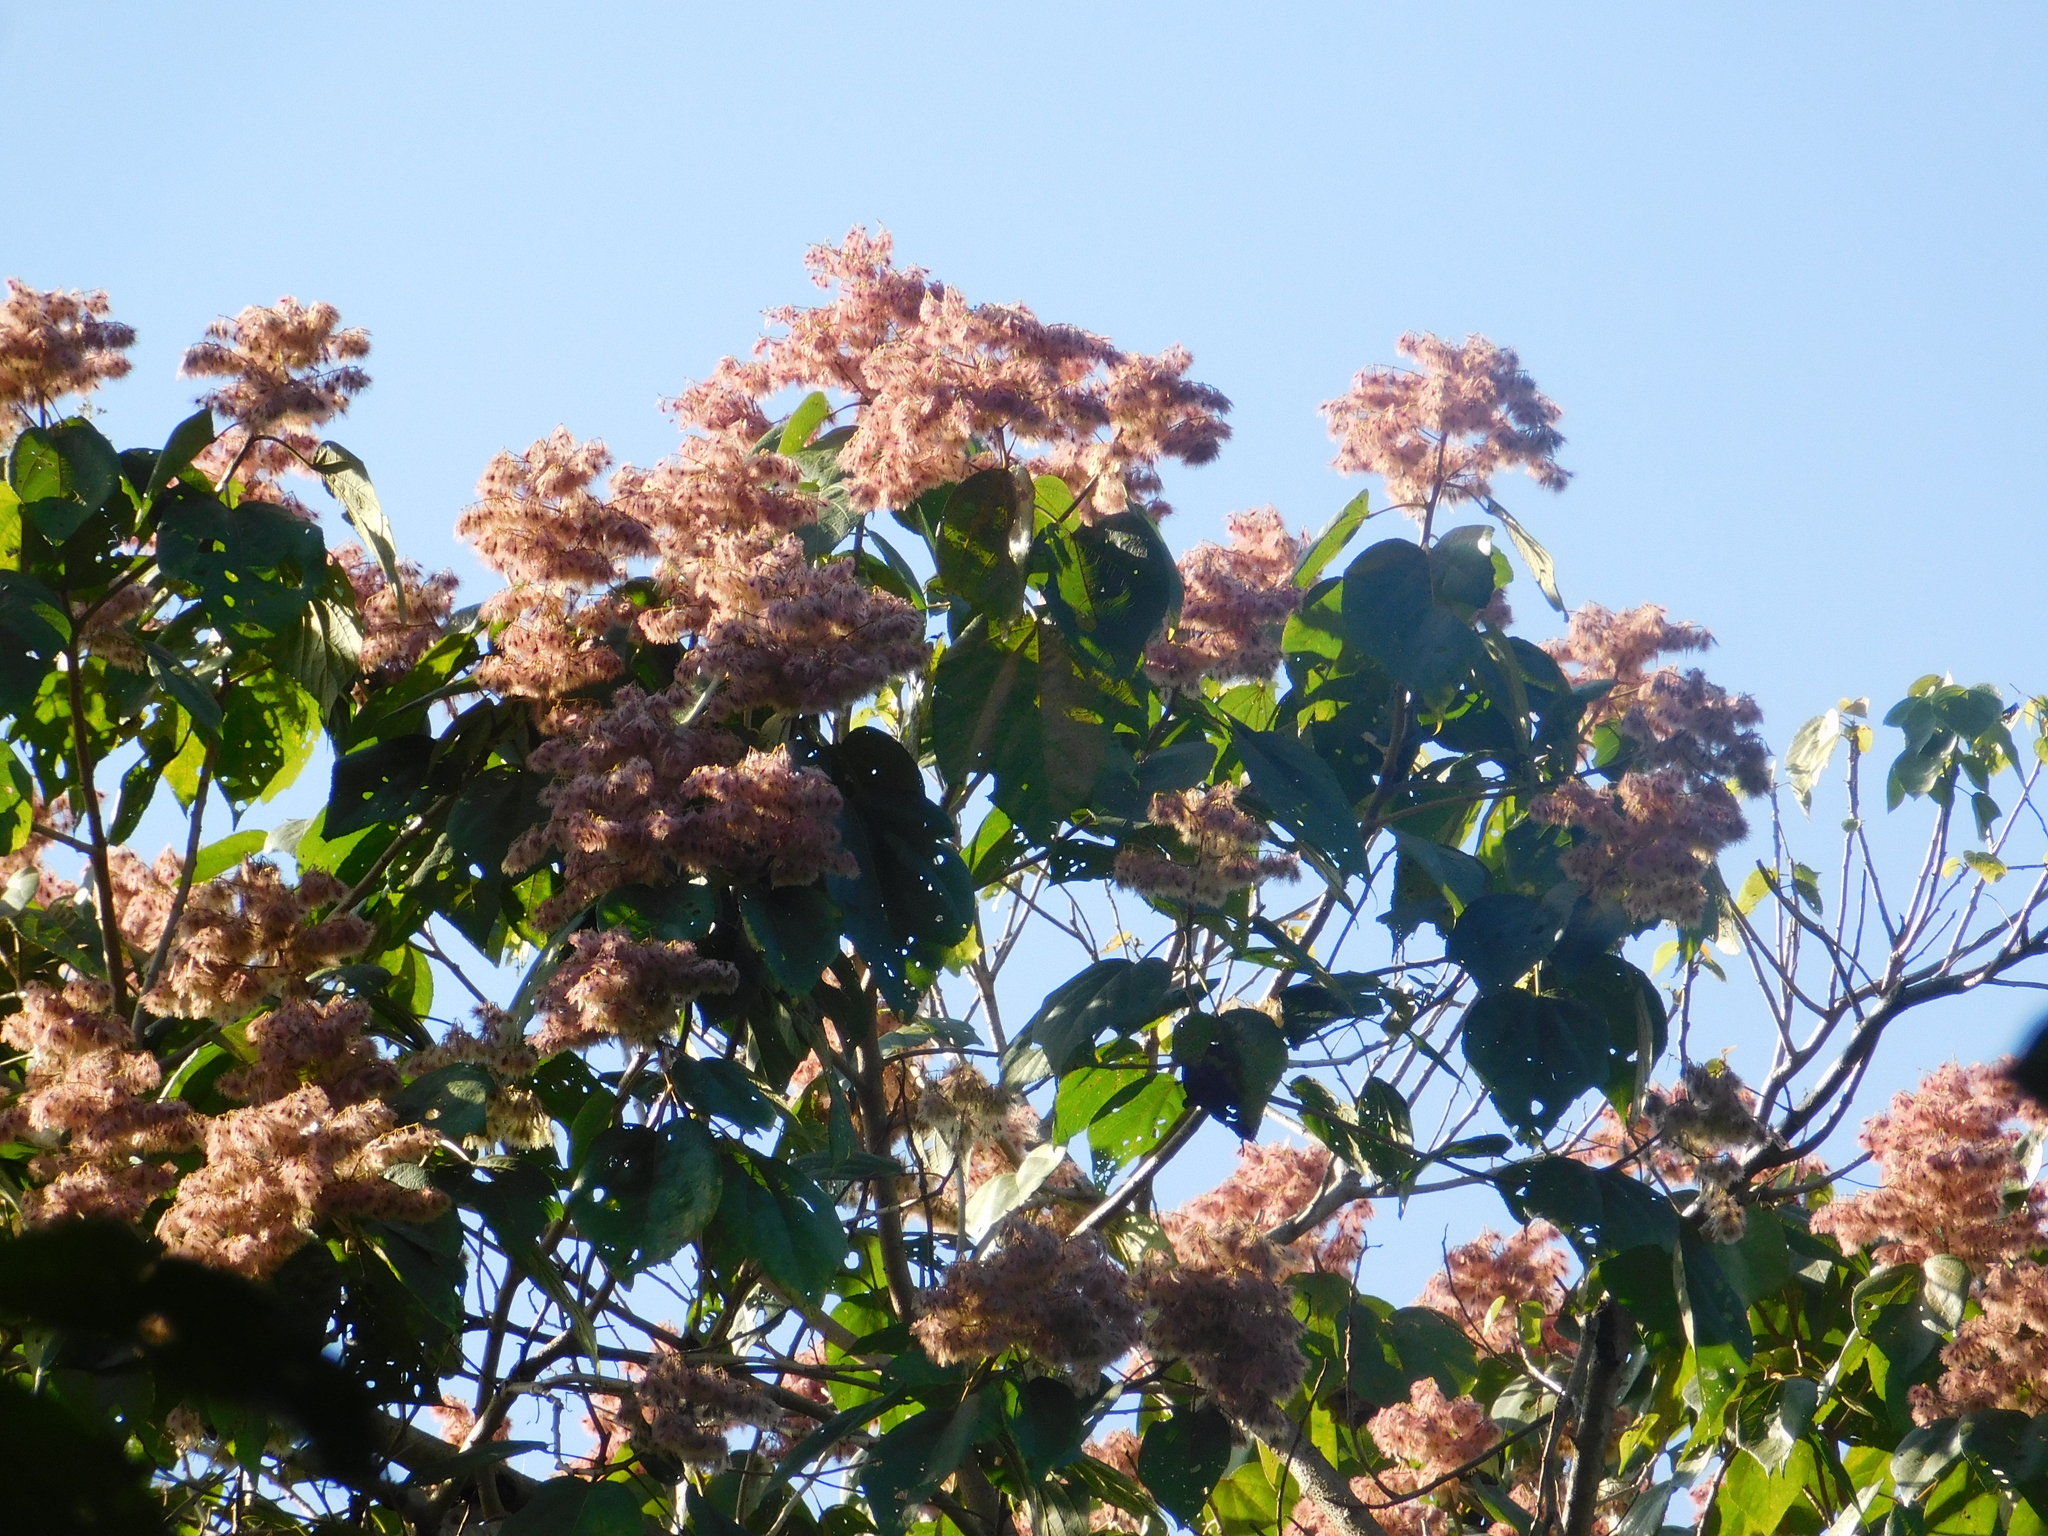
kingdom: Plantae
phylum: Tracheophyta
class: Magnoliopsida
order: Malvales
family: Malvaceae
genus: Heliocarpus
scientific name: Heliocarpus americanus
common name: White moho
